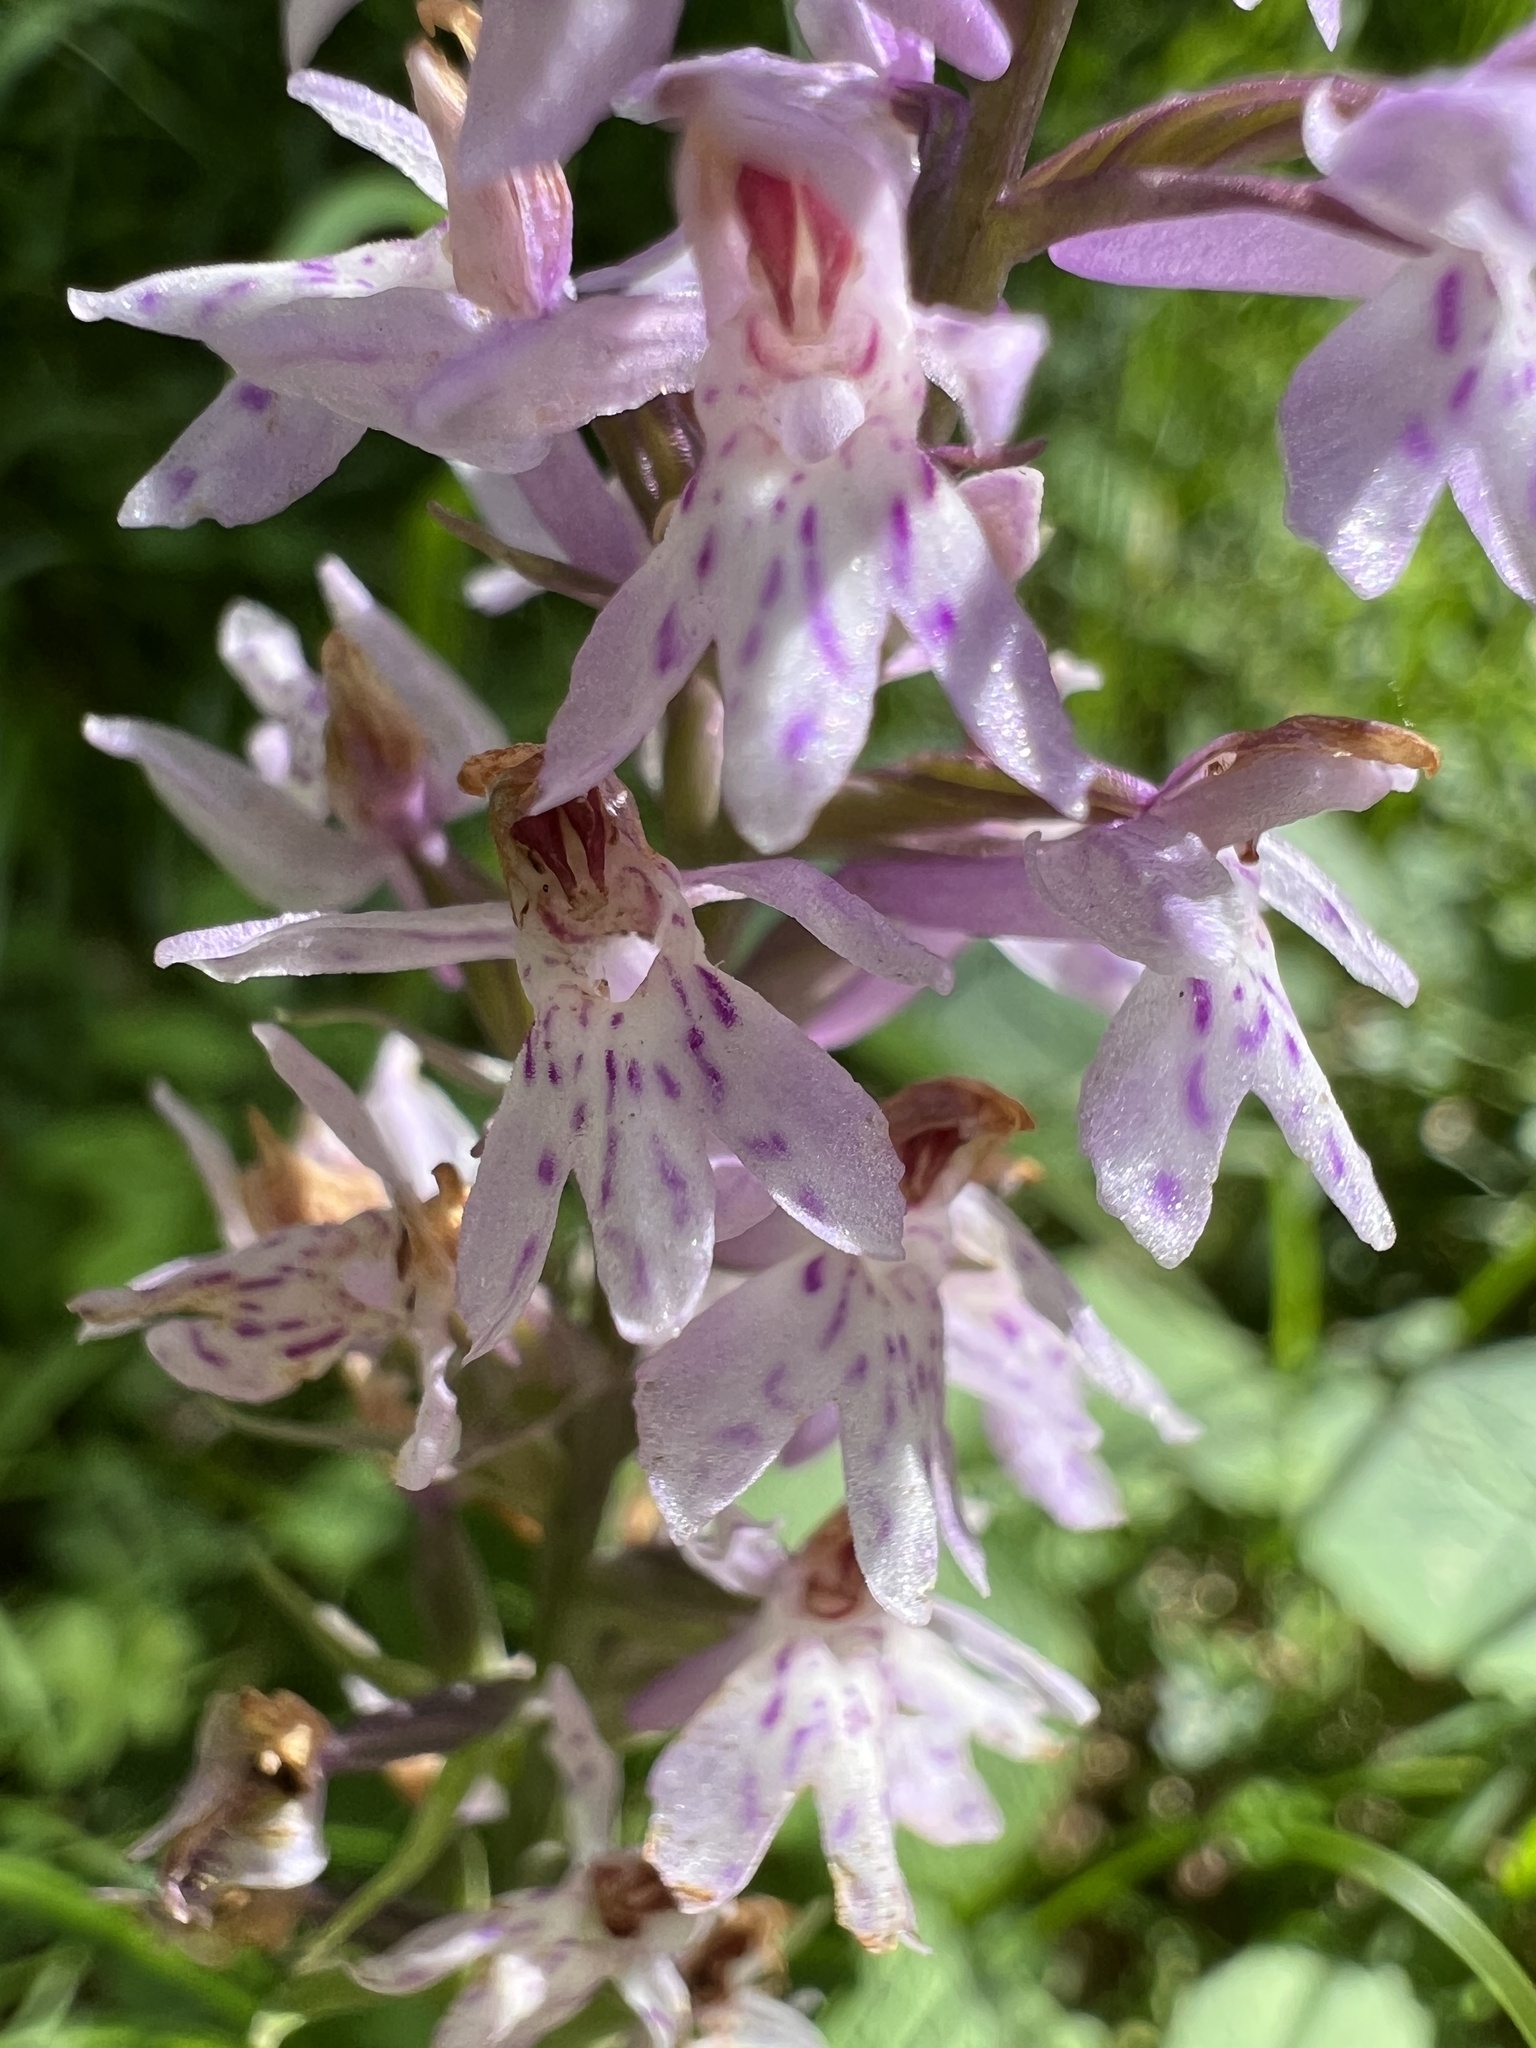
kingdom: Plantae
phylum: Tracheophyta
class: Liliopsida
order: Asparagales
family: Orchidaceae
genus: Dactylorhiza
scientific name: Dactylorhiza maculata
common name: Heath spotted-orchid
